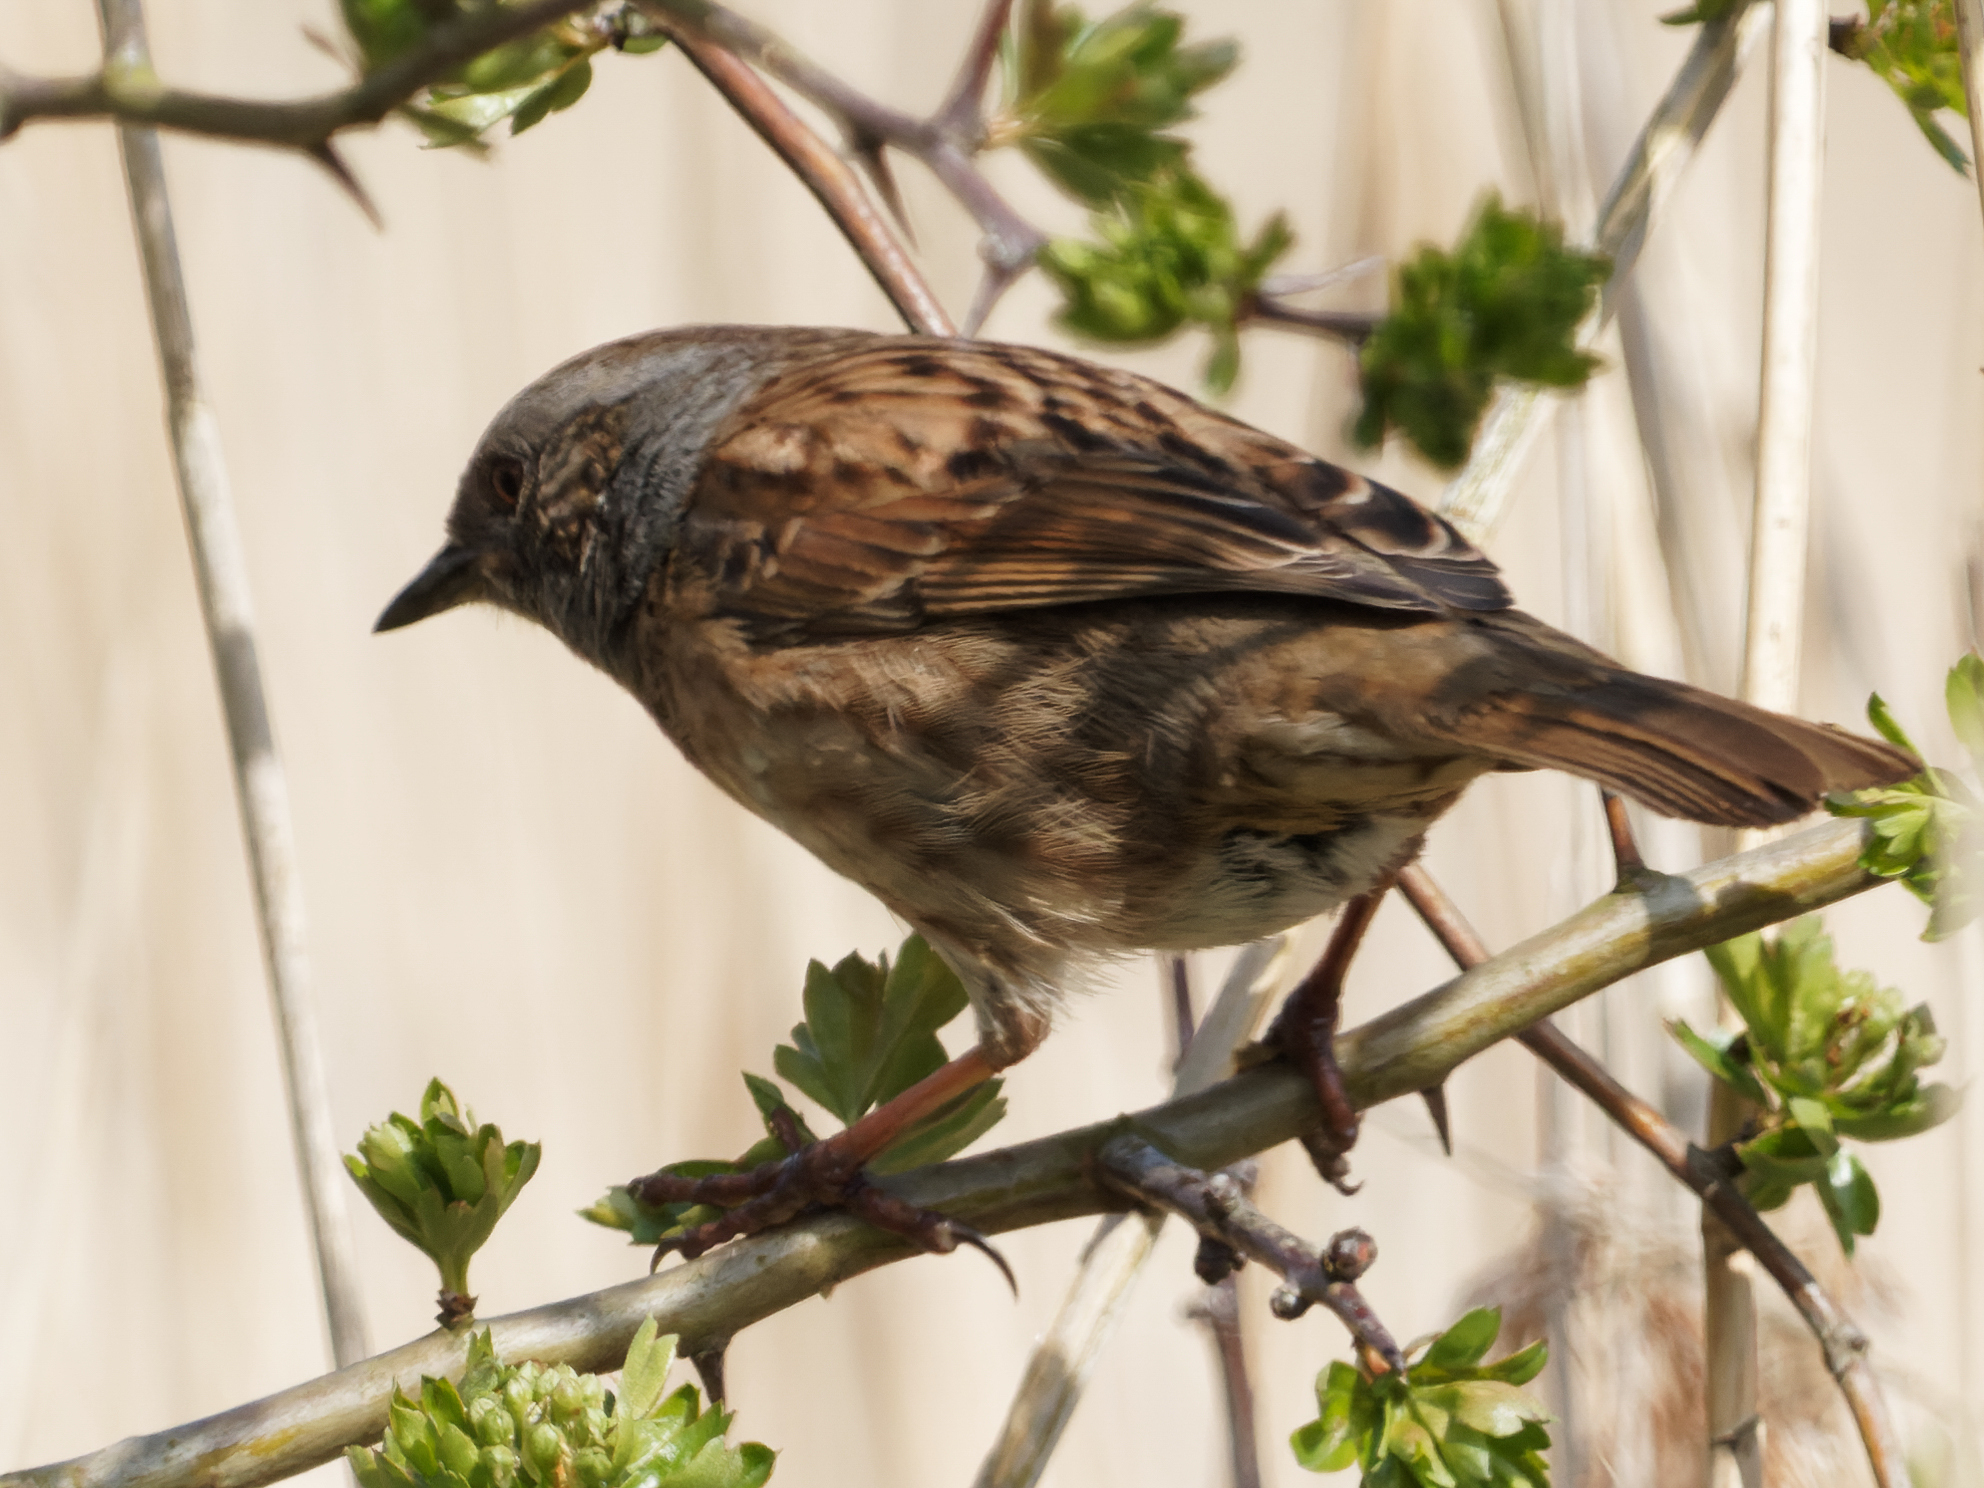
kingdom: Animalia
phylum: Chordata
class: Aves
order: Passeriformes
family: Prunellidae
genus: Prunella
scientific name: Prunella modularis
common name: Dunnock
